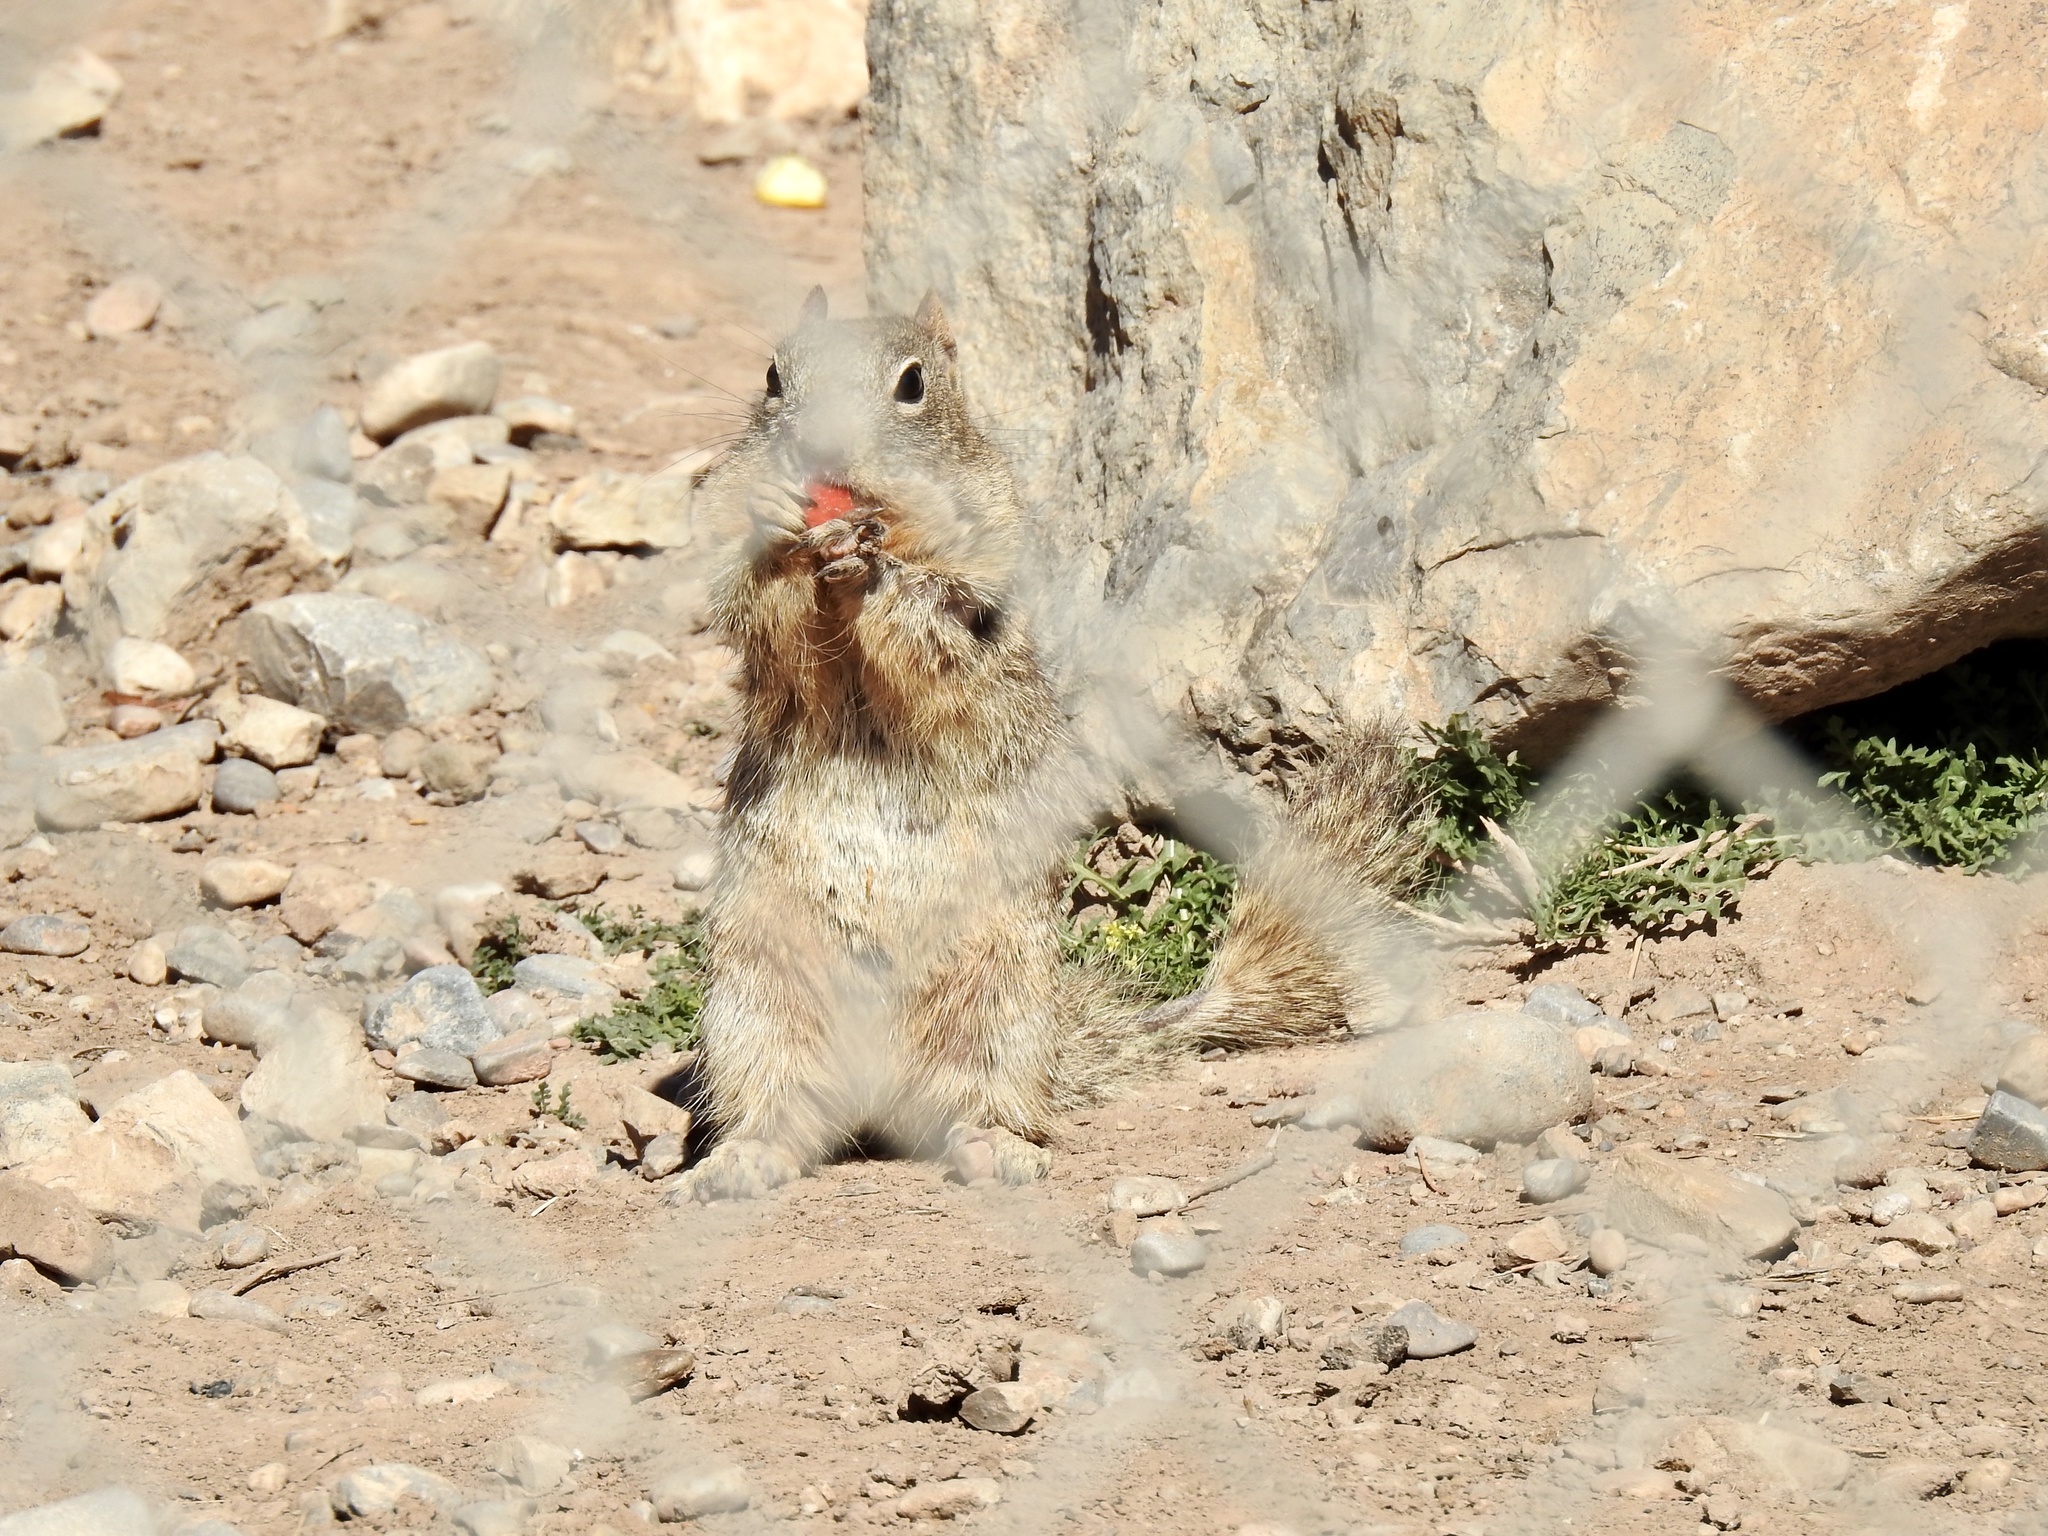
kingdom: Animalia
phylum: Chordata
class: Mammalia
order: Rodentia
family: Sciuridae
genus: Otospermophilus
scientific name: Otospermophilus variegatus
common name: Rock squirrel
